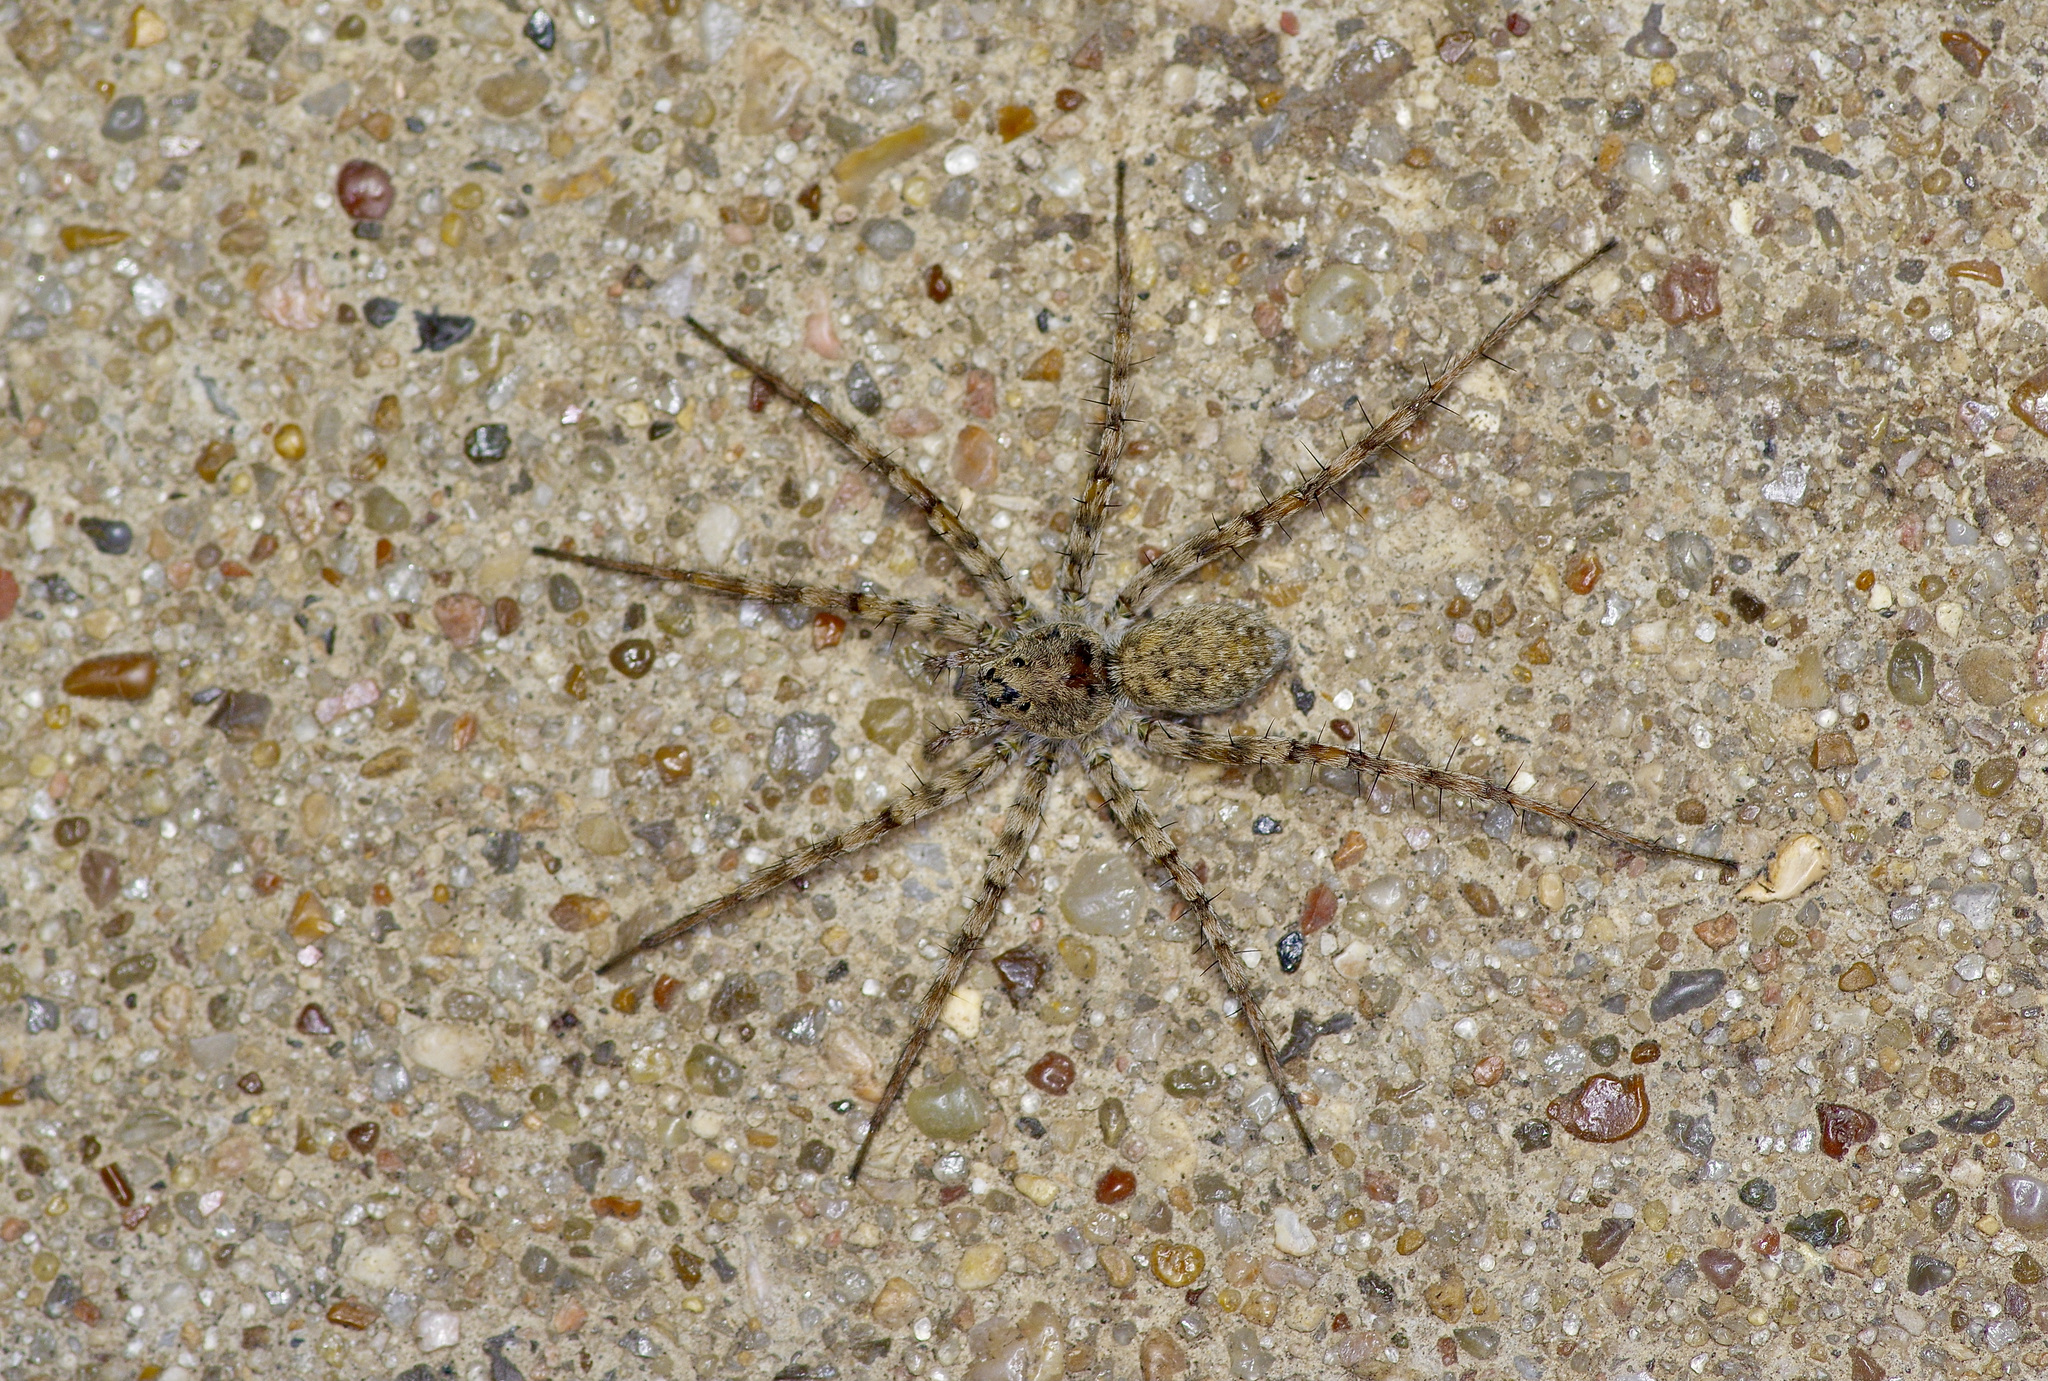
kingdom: Animalia
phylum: Arthropoda
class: Arachnida
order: Araneae
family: Lycosidae
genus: Pardosa
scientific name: Pardosa vadosa
